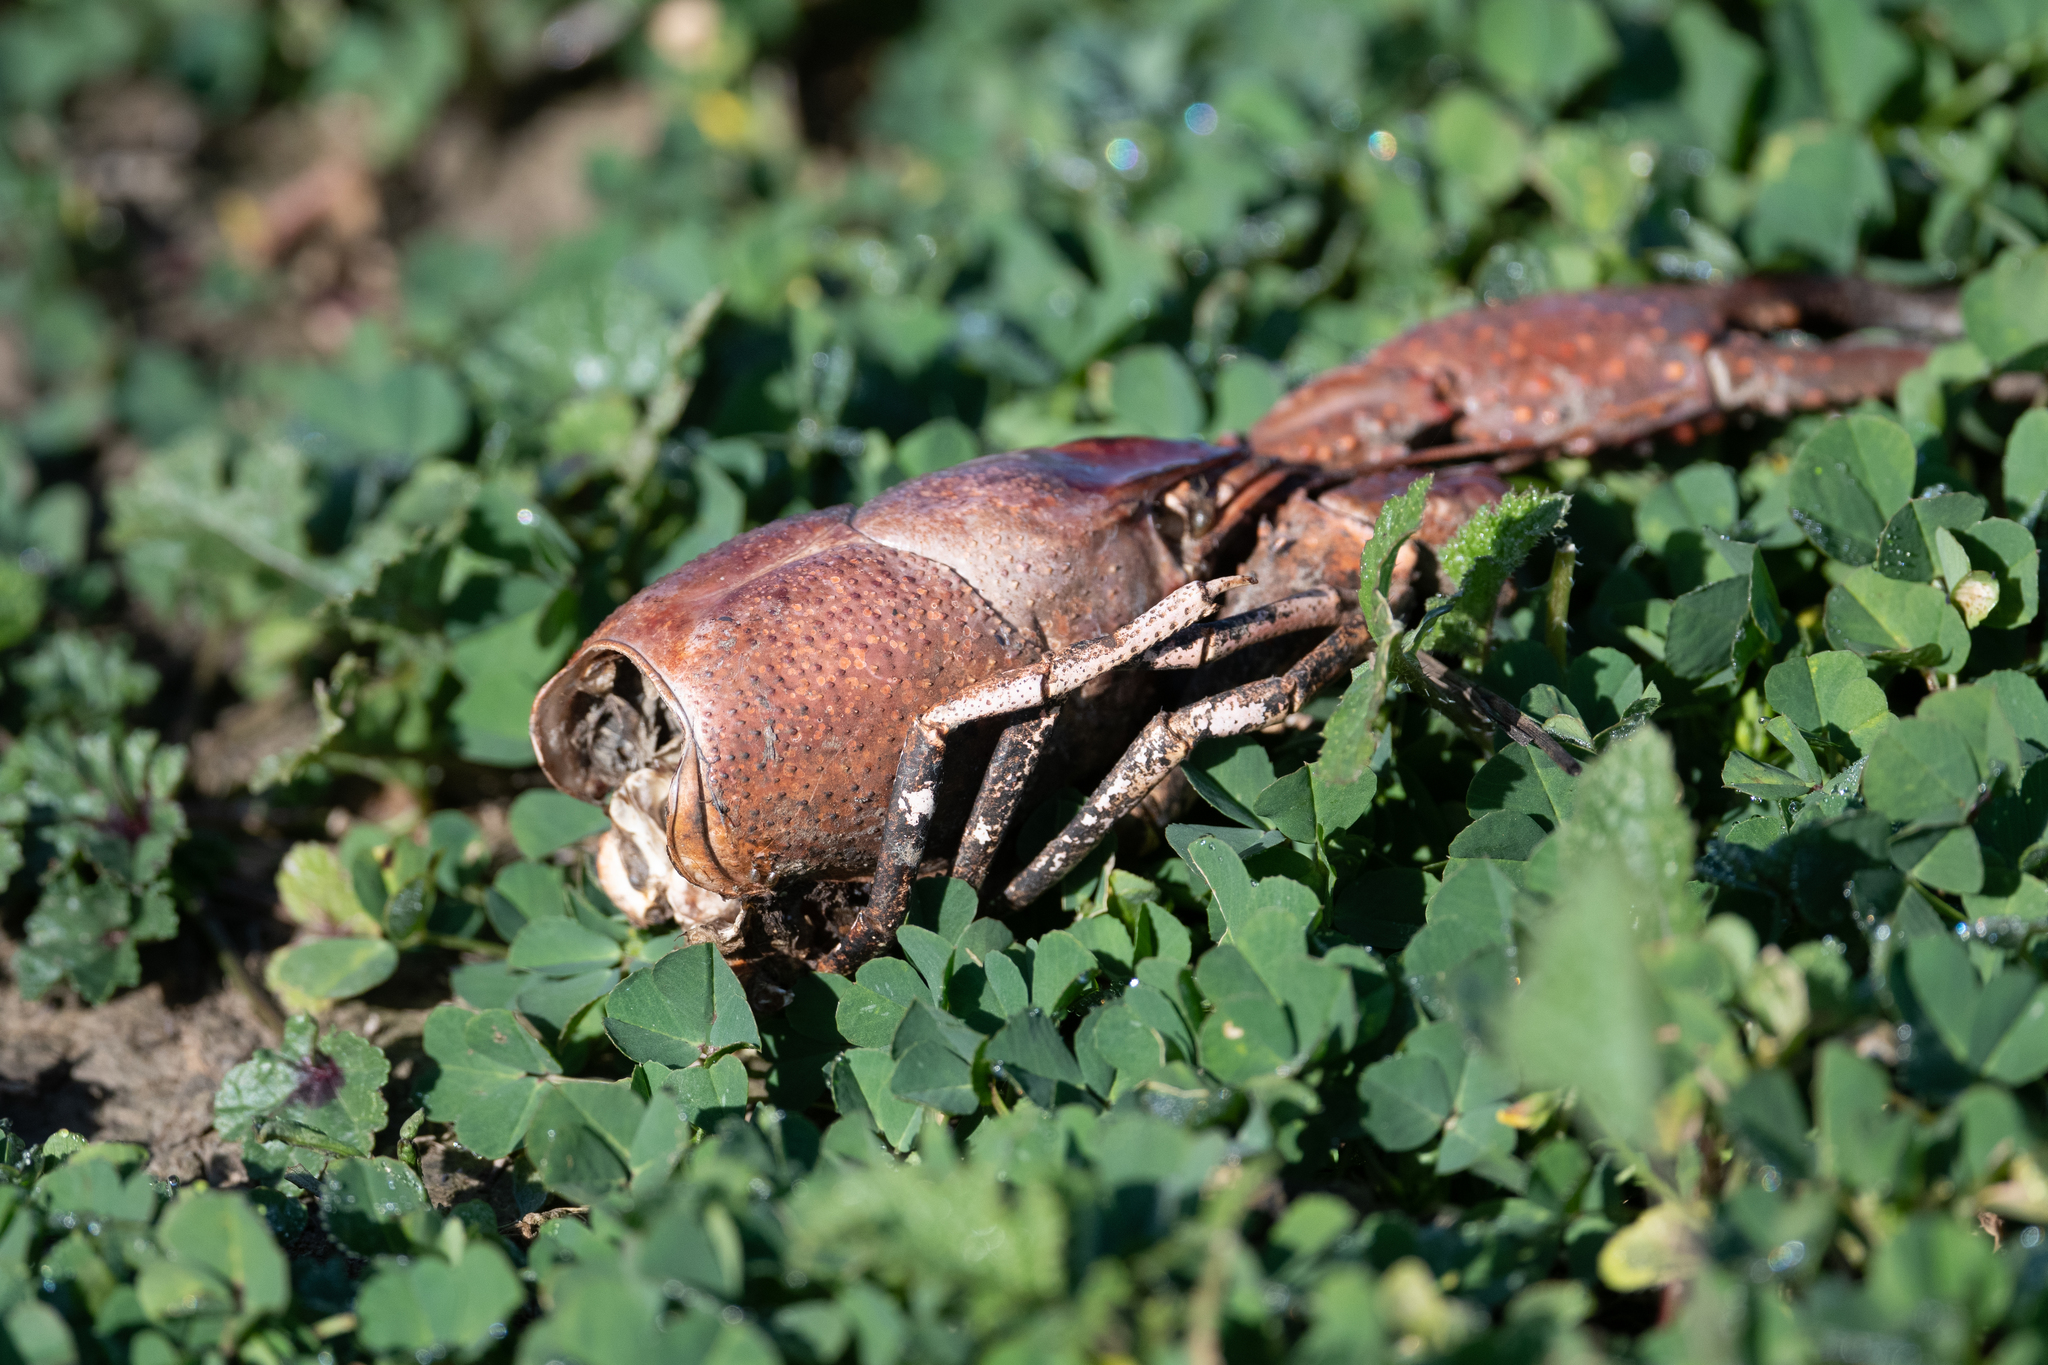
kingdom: Animalia
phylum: Arthropoda
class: Malacostraca
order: Decapoda
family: Cambaridae
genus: Procambarus
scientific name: Procambarus clarkii
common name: Red swamp crayfish
